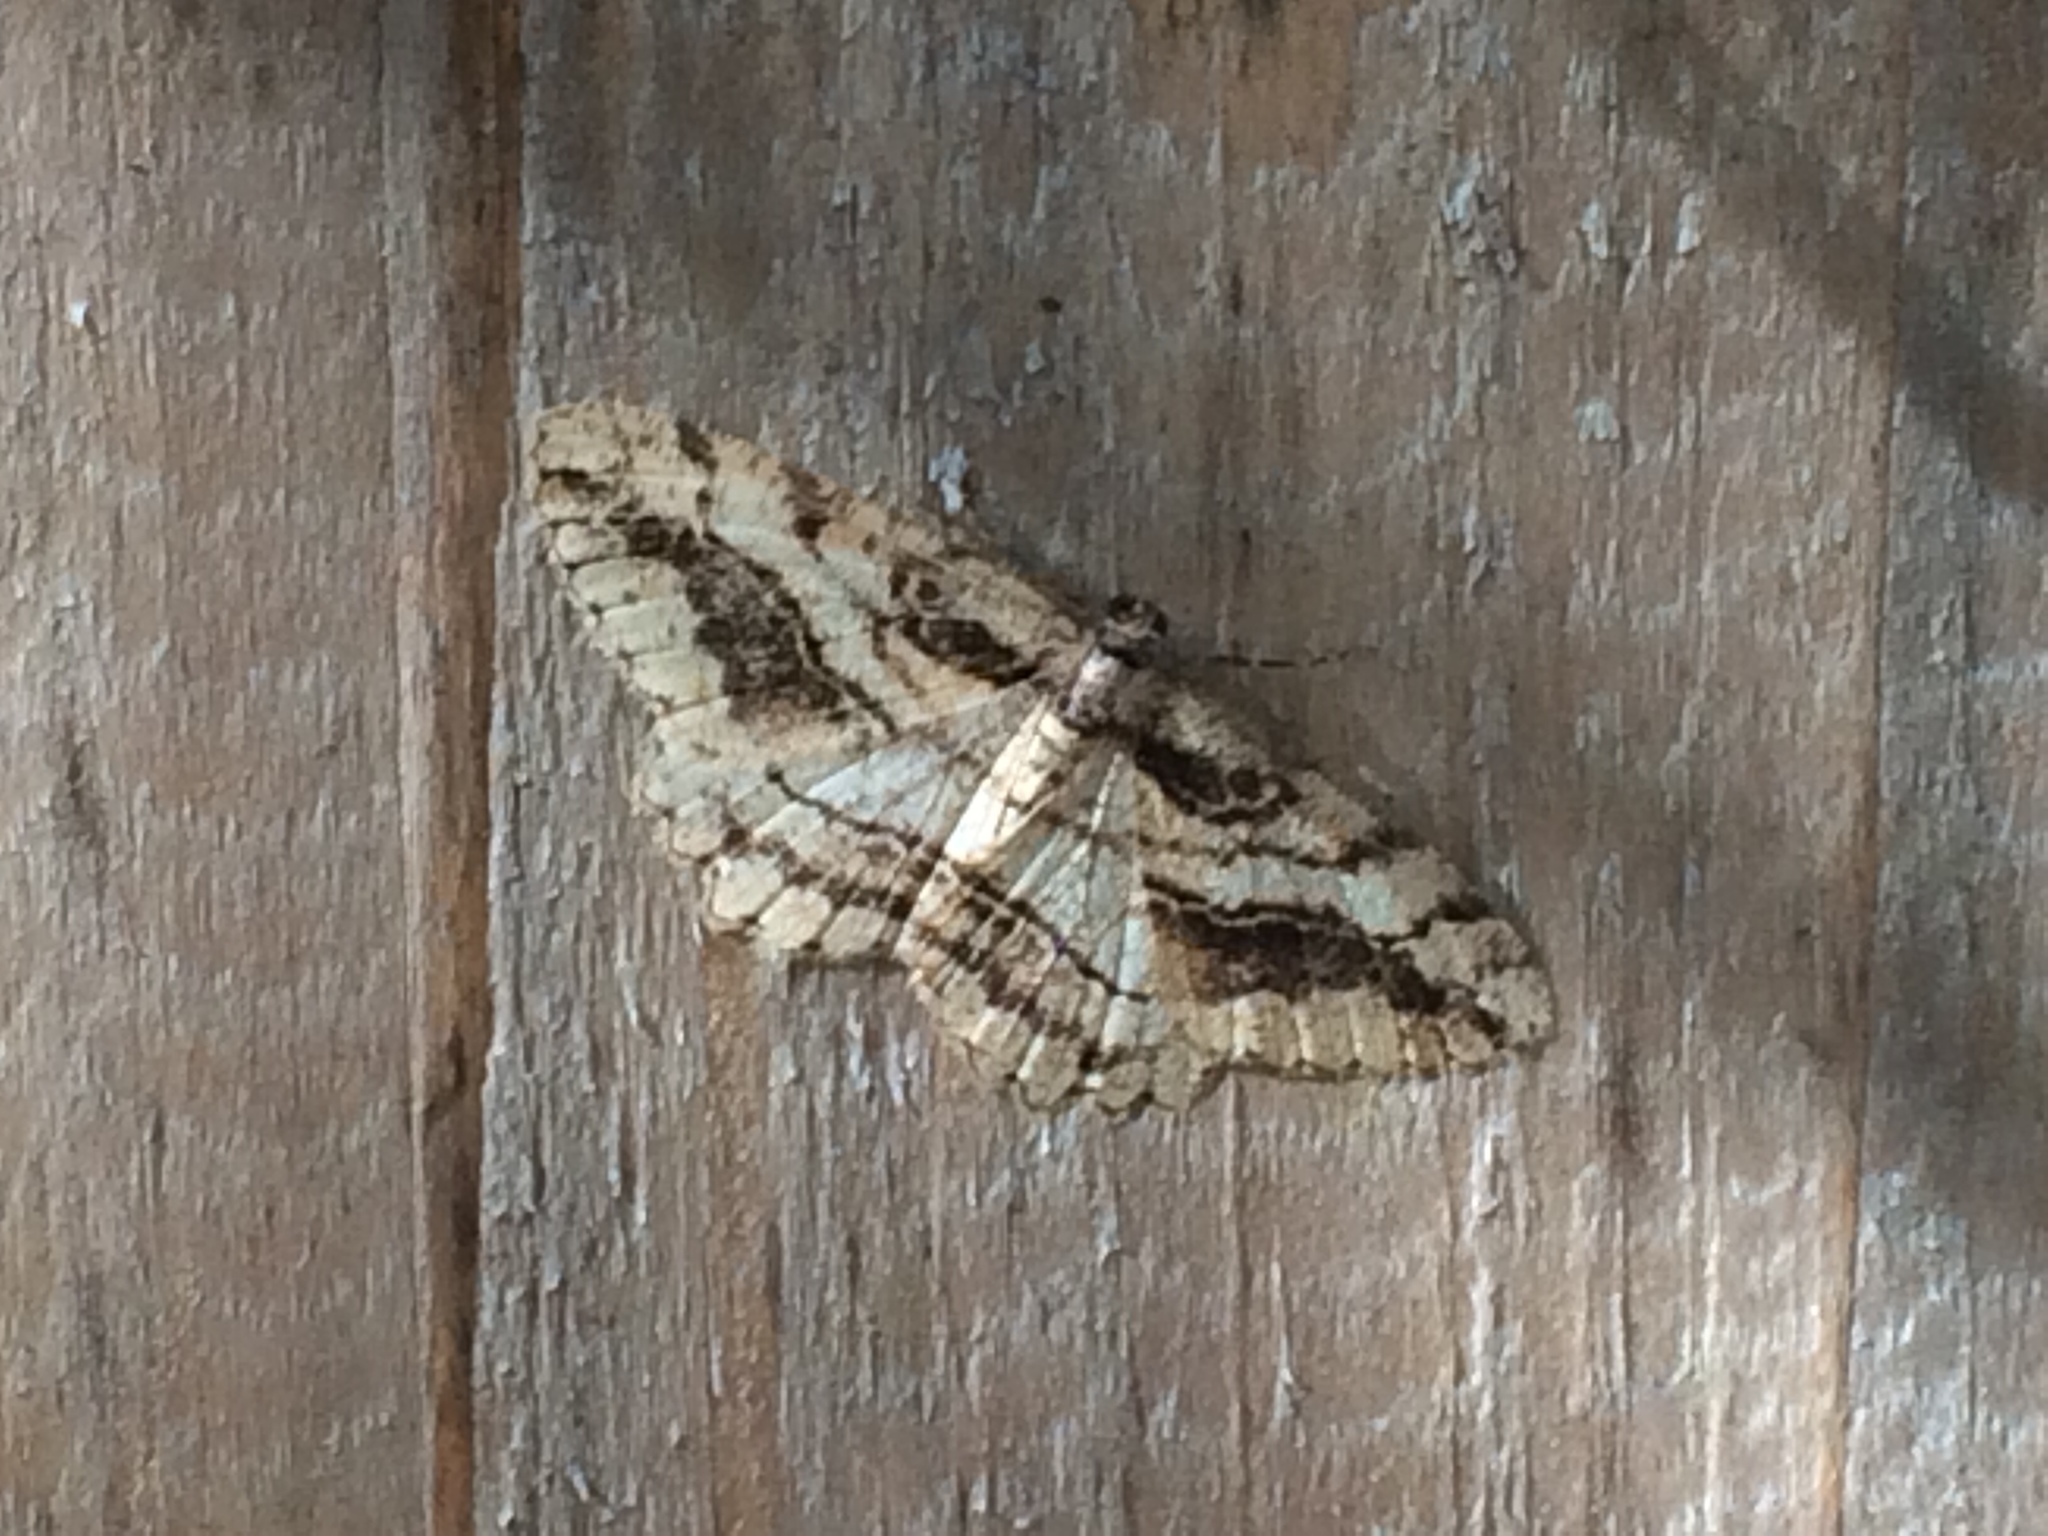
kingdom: Animalia
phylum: Arthropoda
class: Insecta
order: Lepidoptera
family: Geometridae
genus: Neoalcis
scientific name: Neoalcis californiaria
